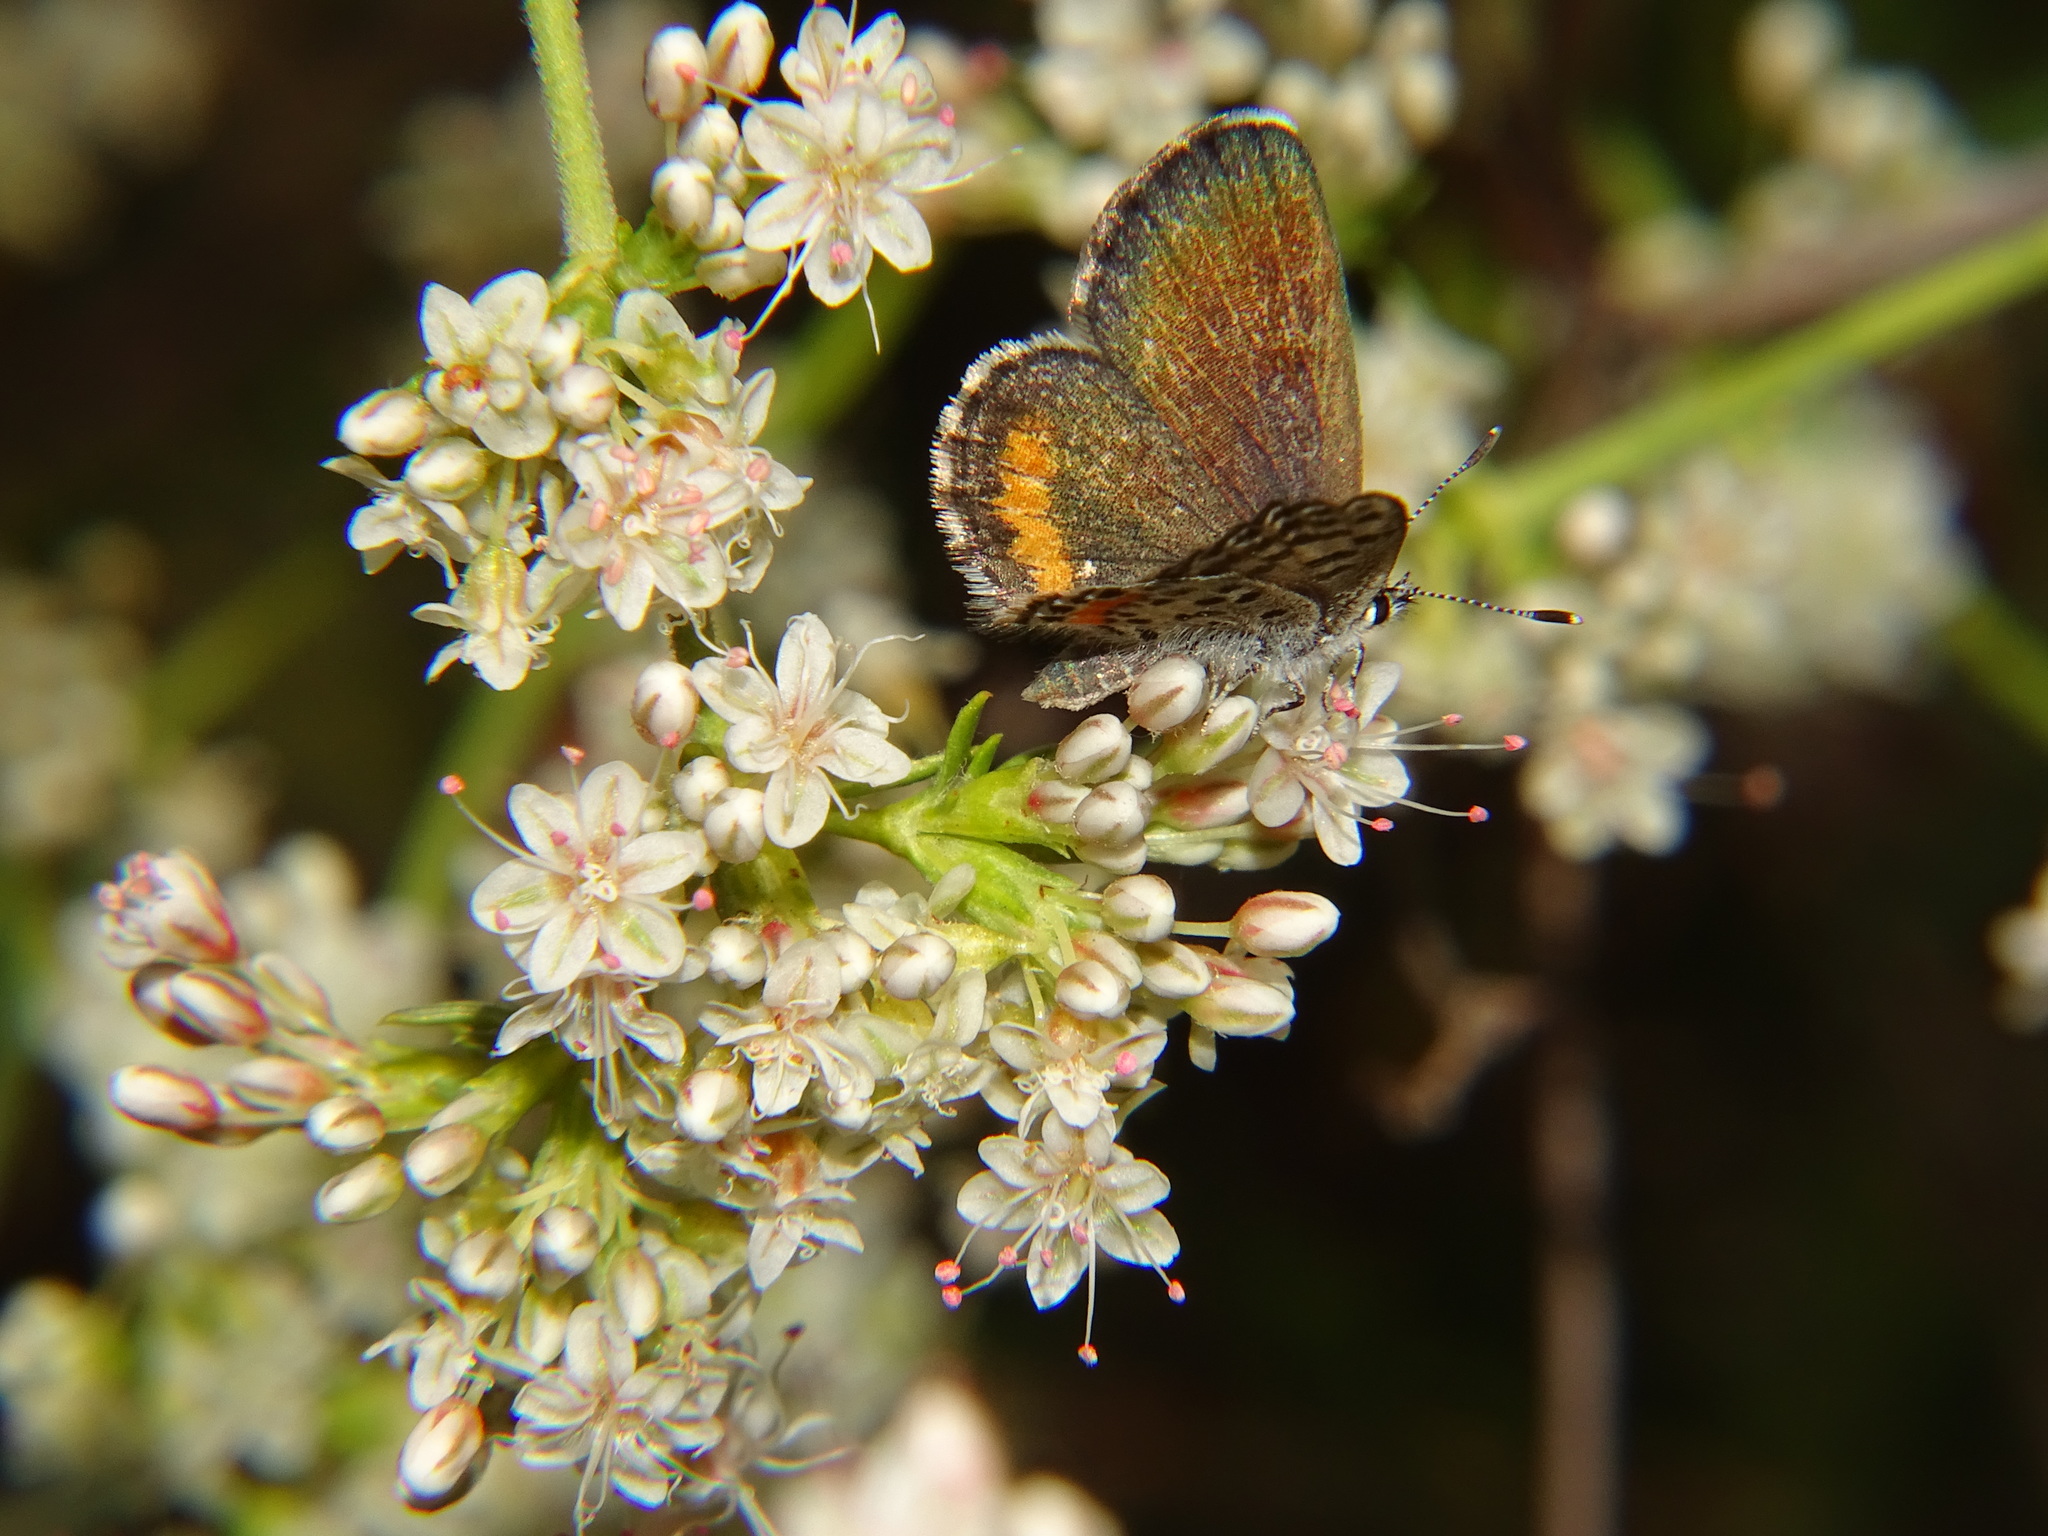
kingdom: Animalia
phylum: Arthropoda
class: Insecta
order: Lepidoptera
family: Lycaenidae
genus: Philotes
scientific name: Philotes bernardino
